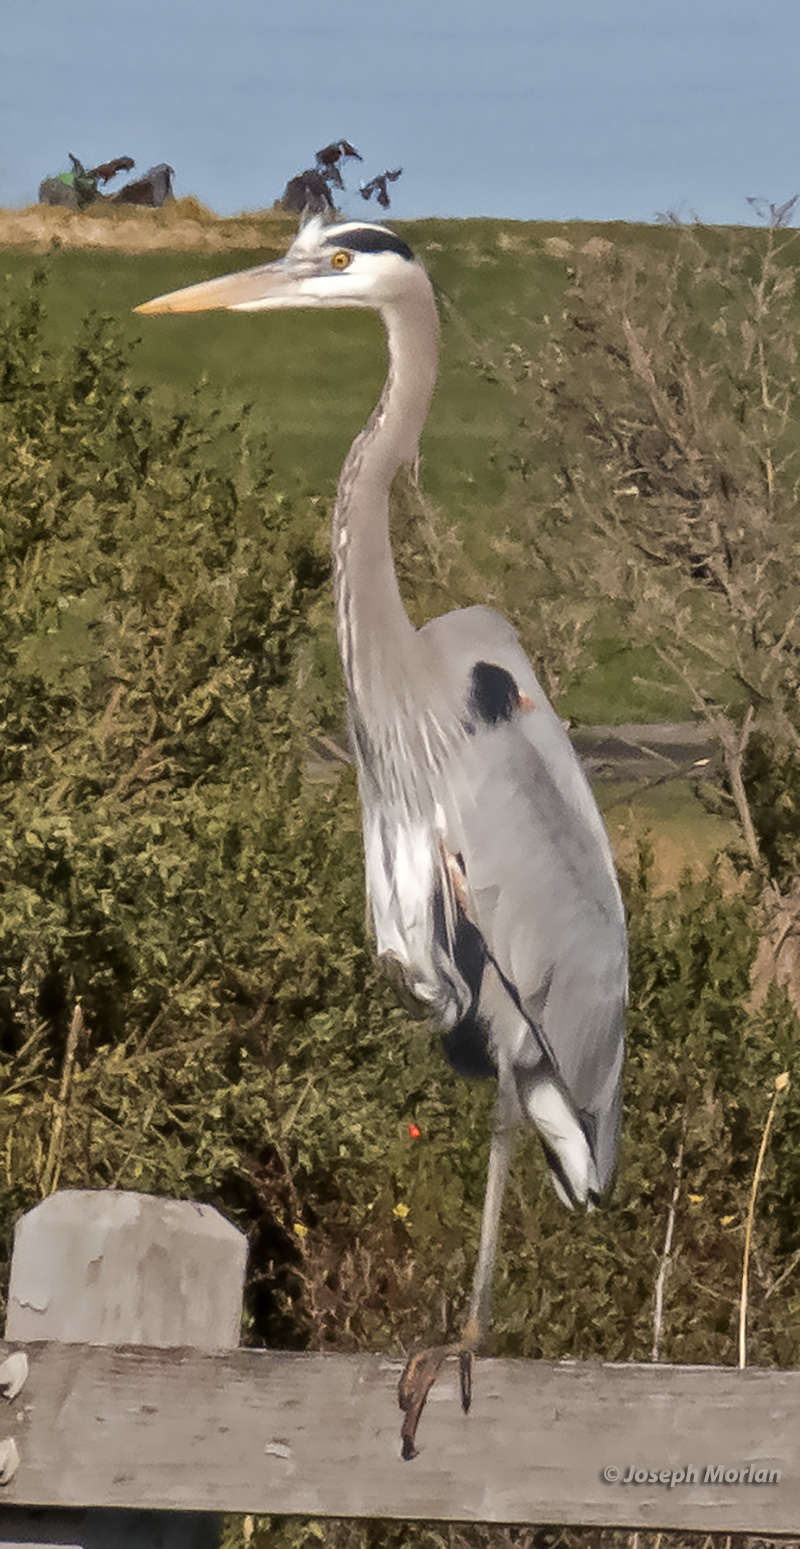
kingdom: Animalia
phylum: Chordata
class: Aves
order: Pelecaniformes
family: Ardeidae
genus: Ardea
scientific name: Ardea herodias
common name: Great blue heron
